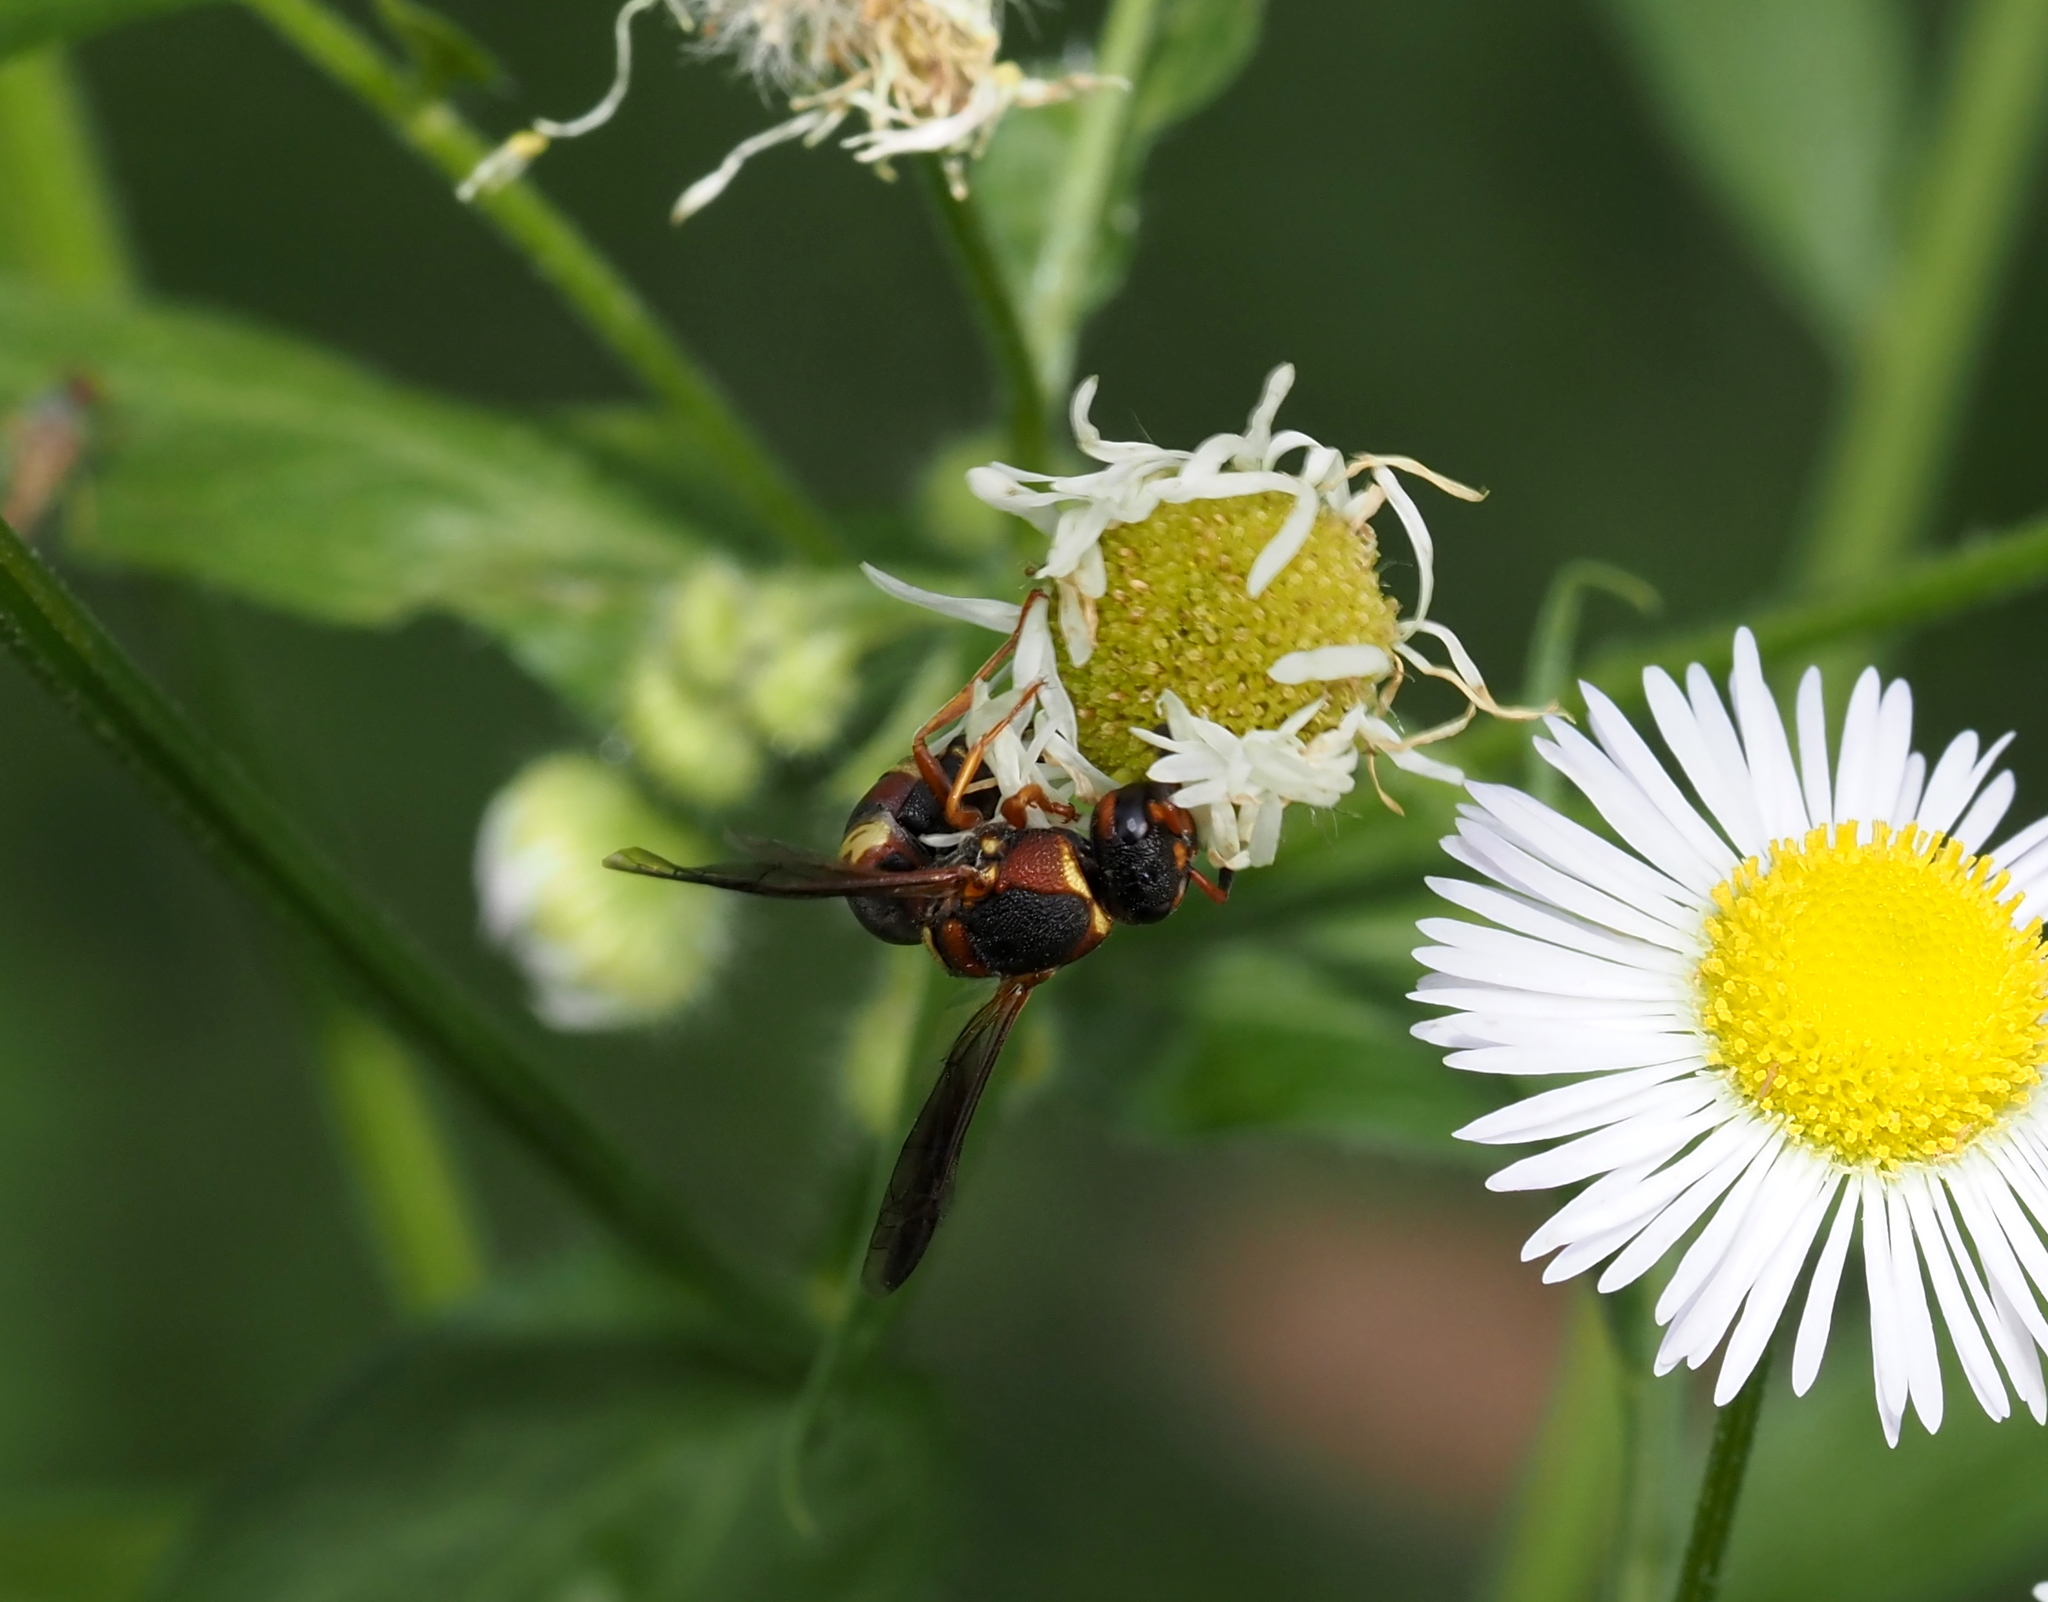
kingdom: Animalia
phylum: Arthropoda
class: Insecta
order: Hymenoptera
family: Eumenidae
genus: Euodynerus
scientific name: Euodynerus
